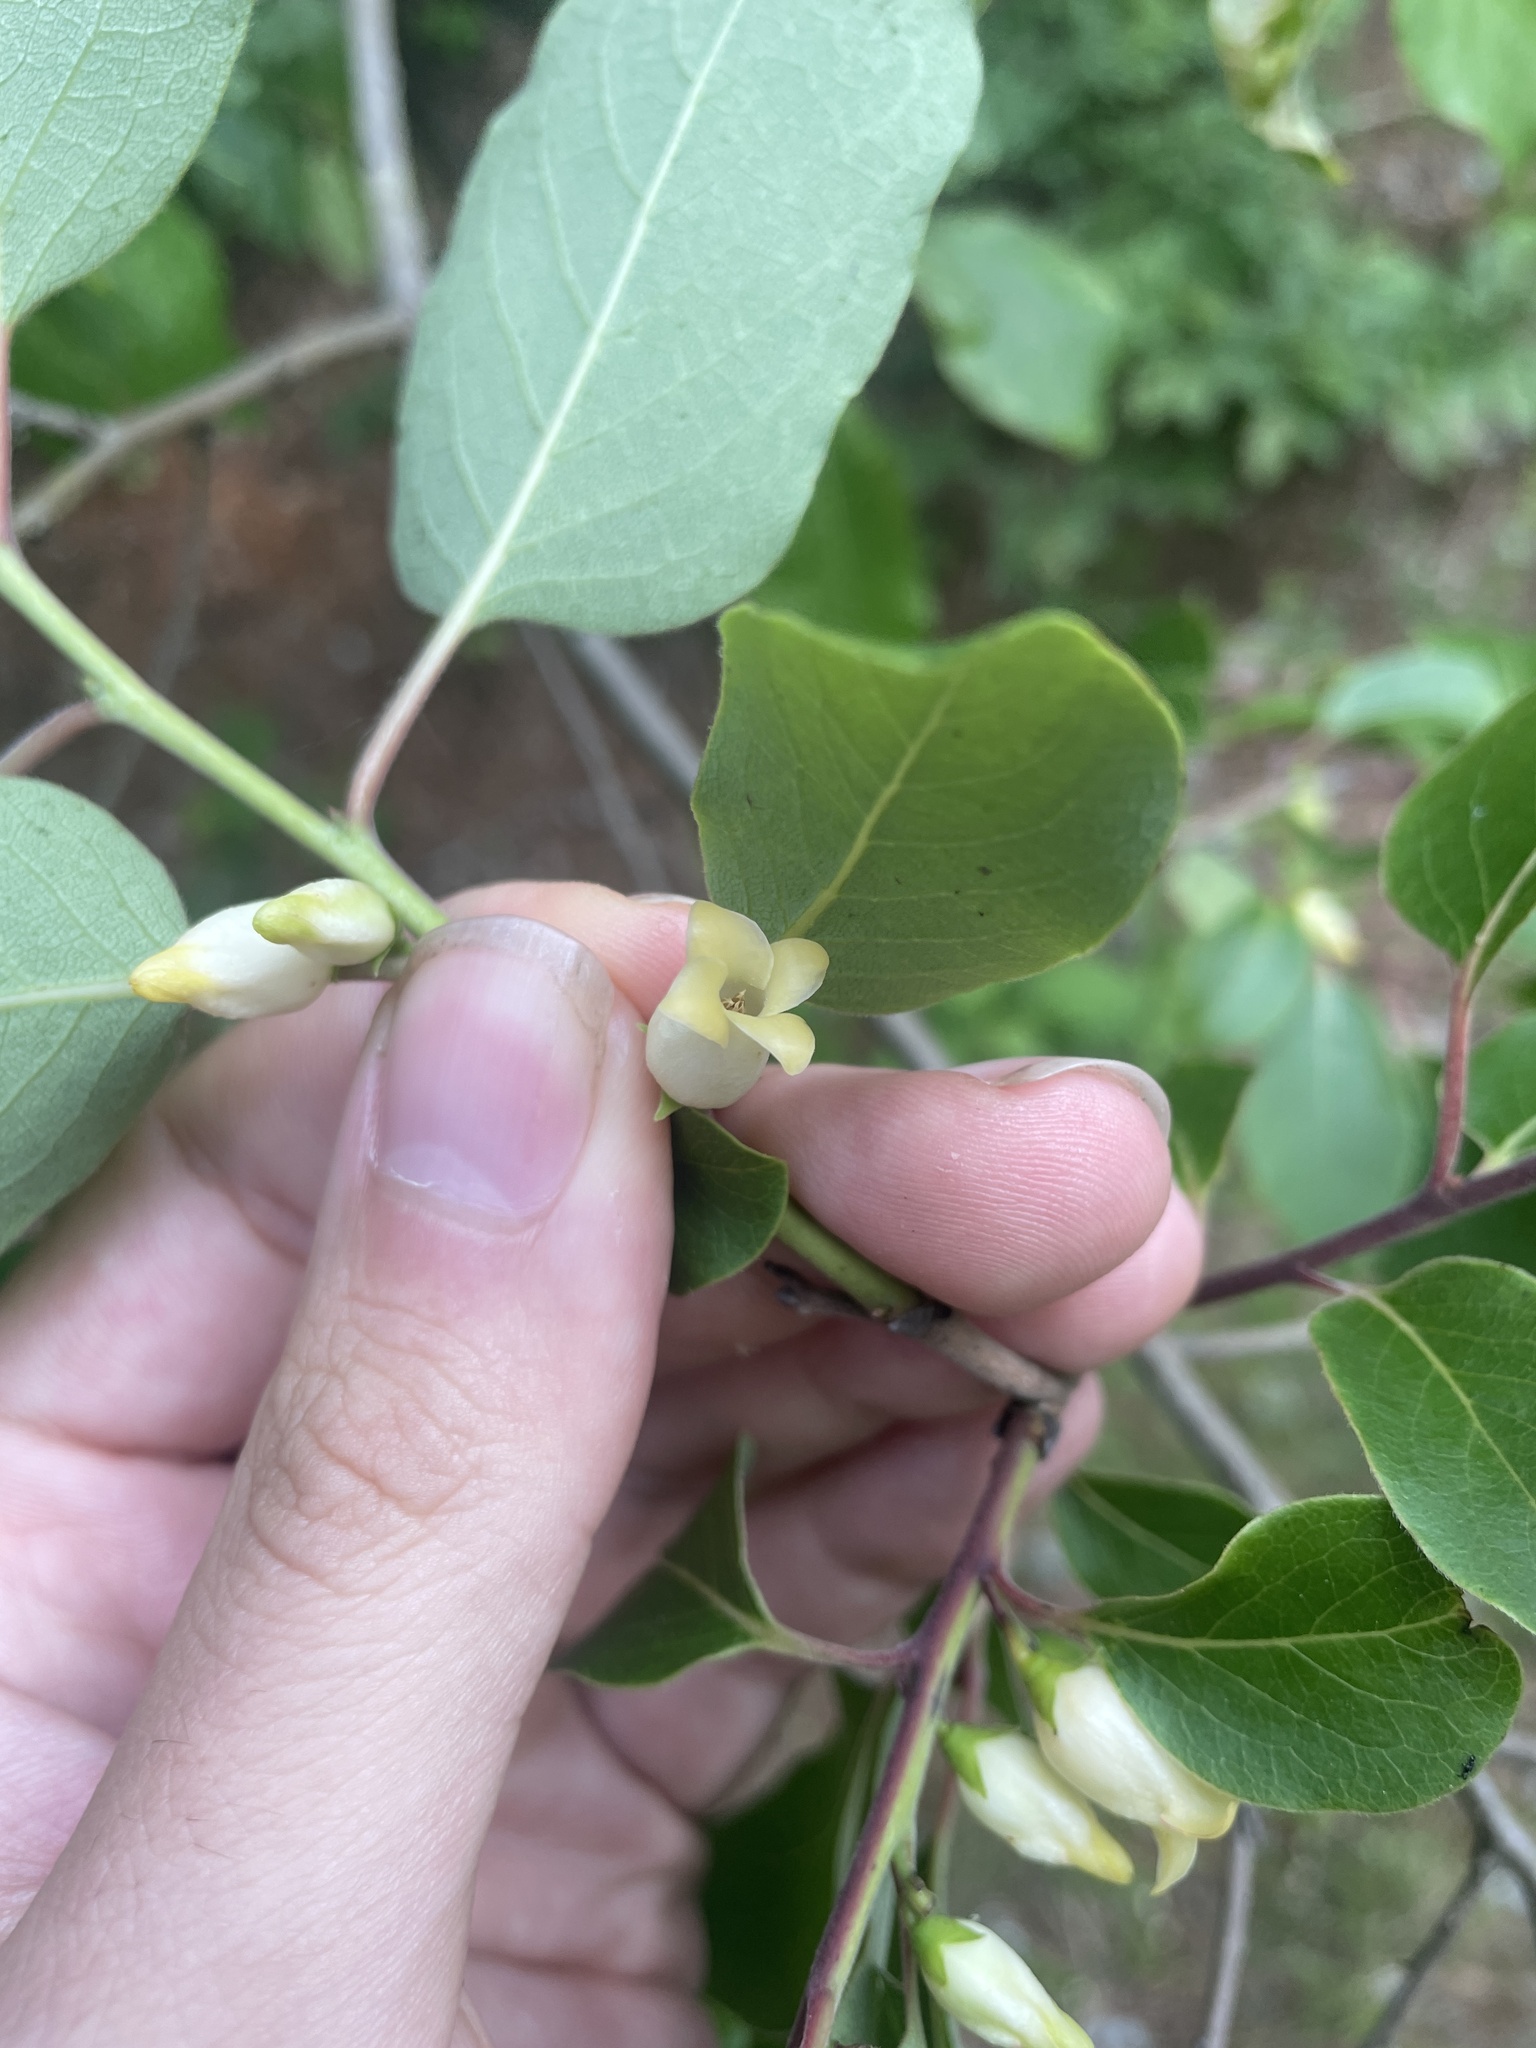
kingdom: Plantae
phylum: Tracheophyta
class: Magnoliopsida
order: Ericales
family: Ebenaceae
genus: Diospyros
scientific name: Diospyros virginiana
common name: Persimmon
